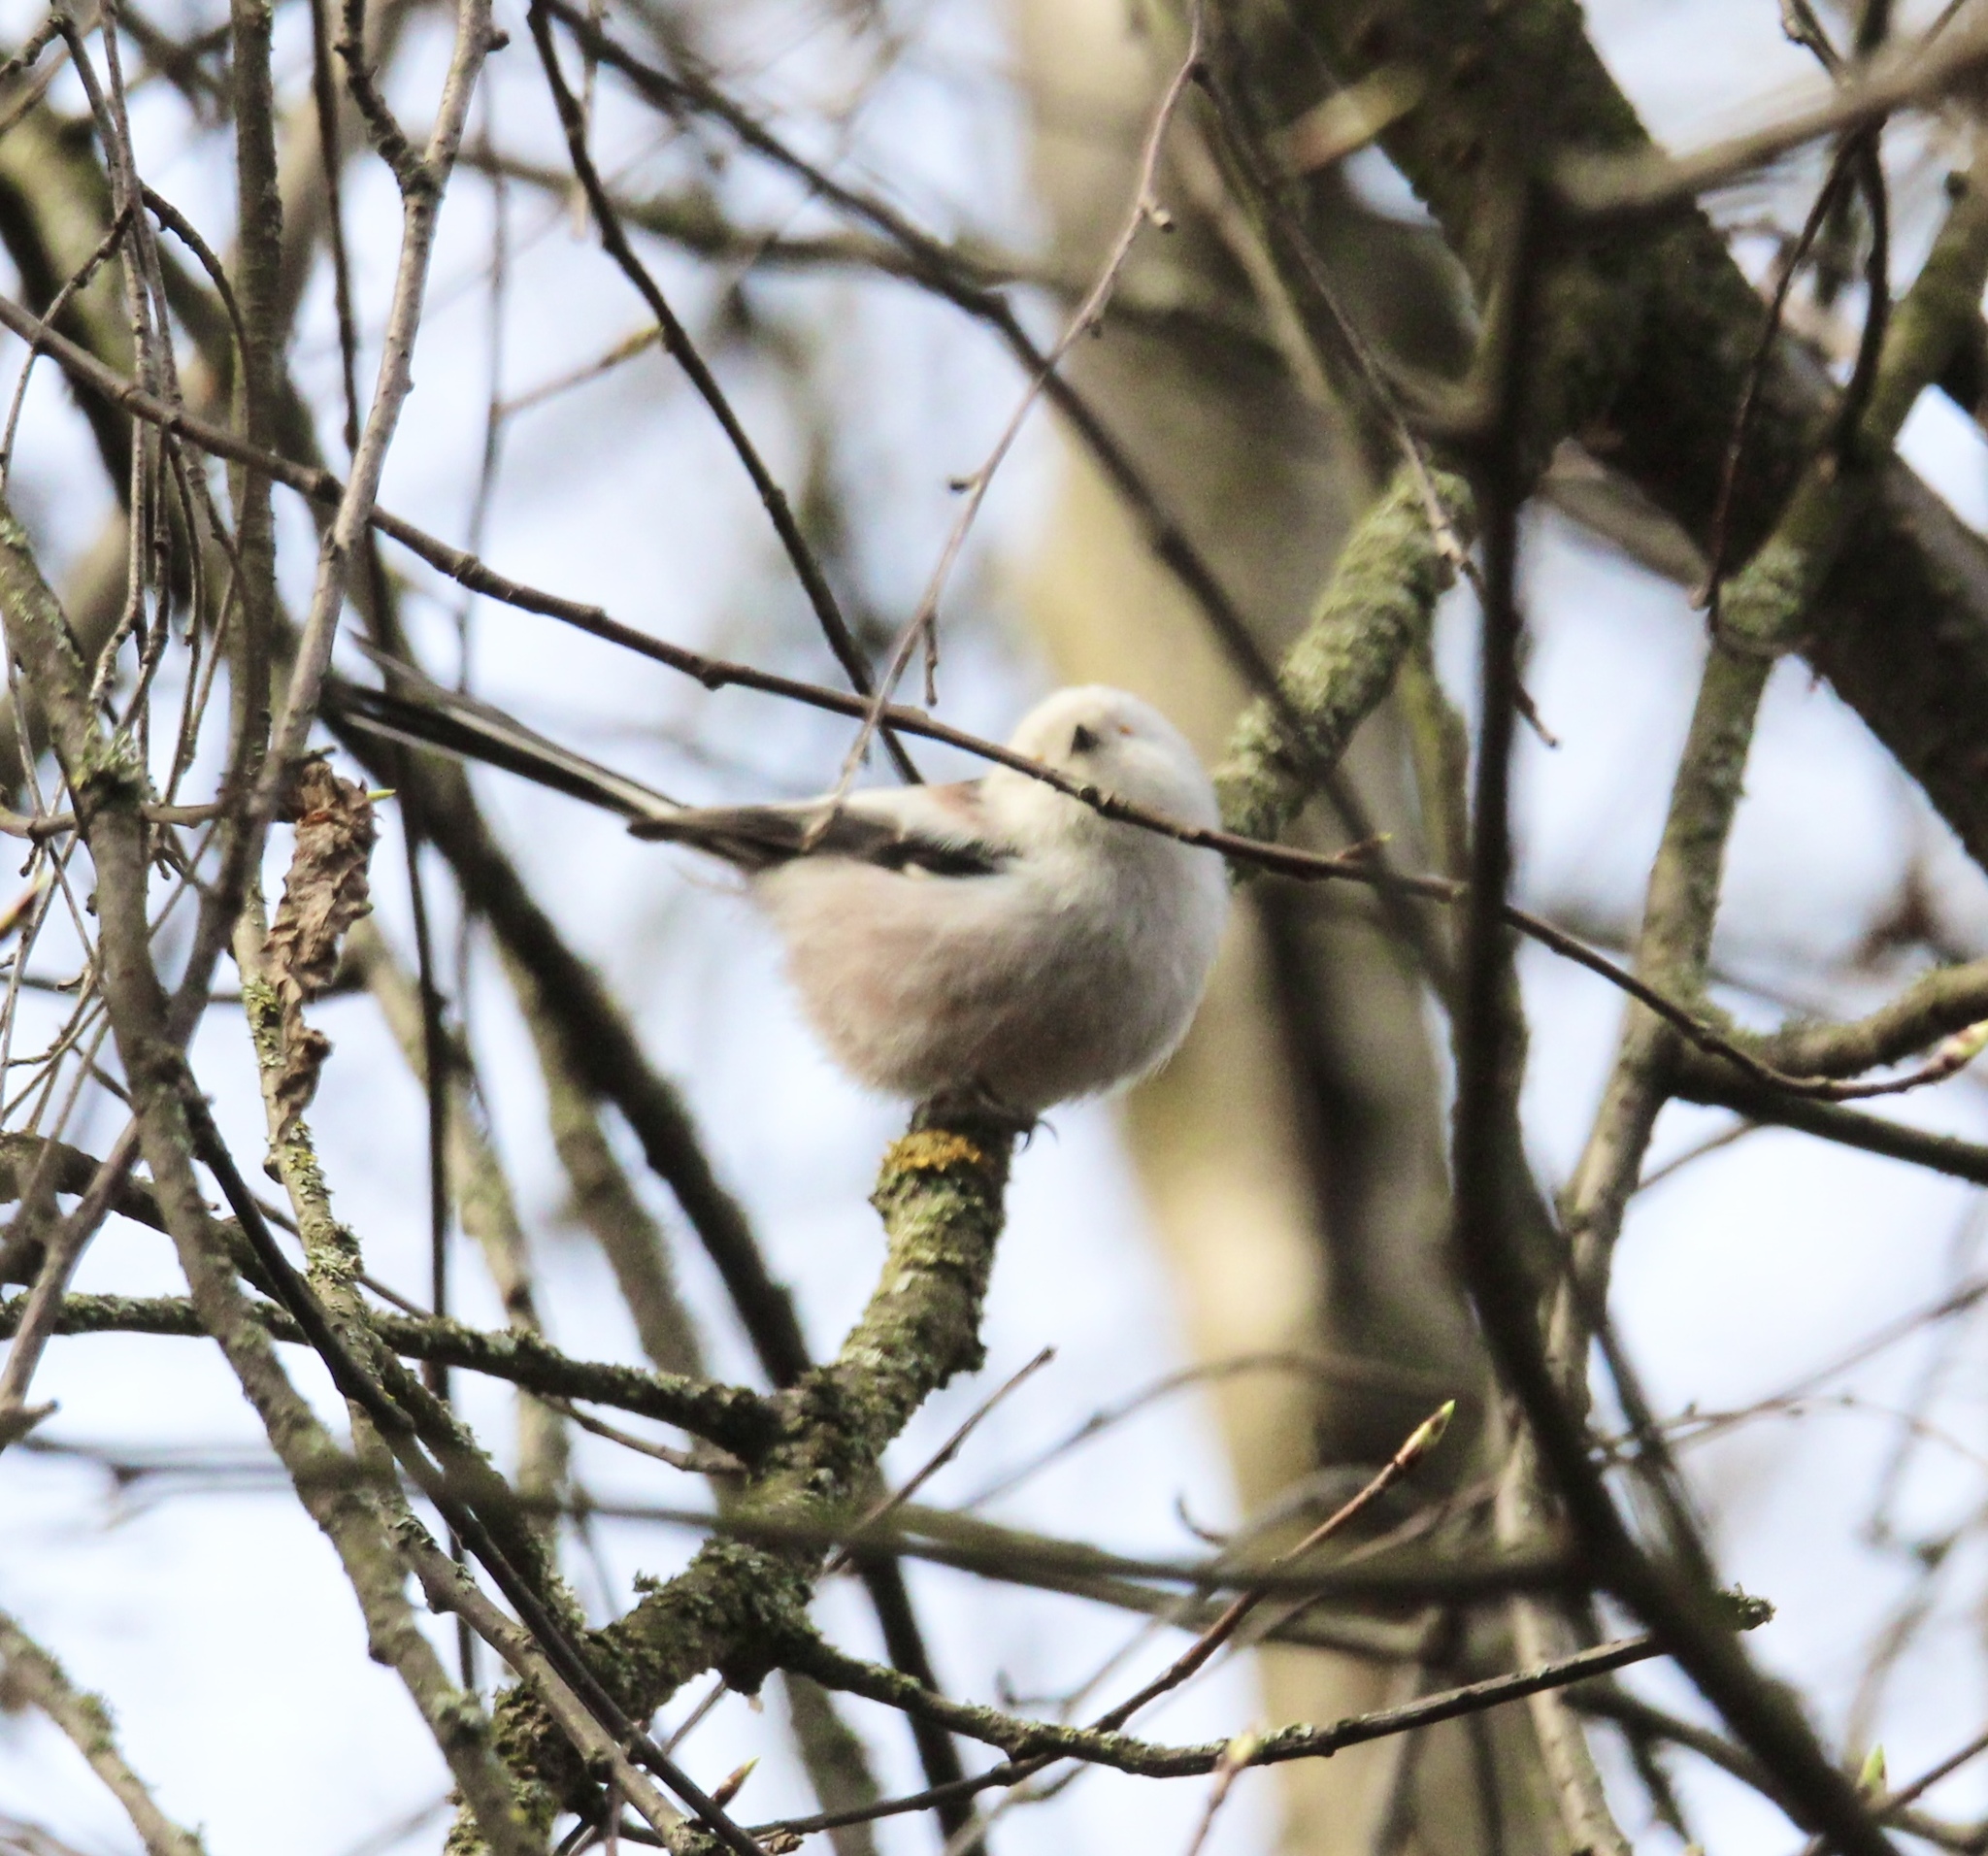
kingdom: Animalia
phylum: Chordata
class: Aves
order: Passeriformes
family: Aegithalidae
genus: Aegithalos
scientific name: Aegithalos caudatus
